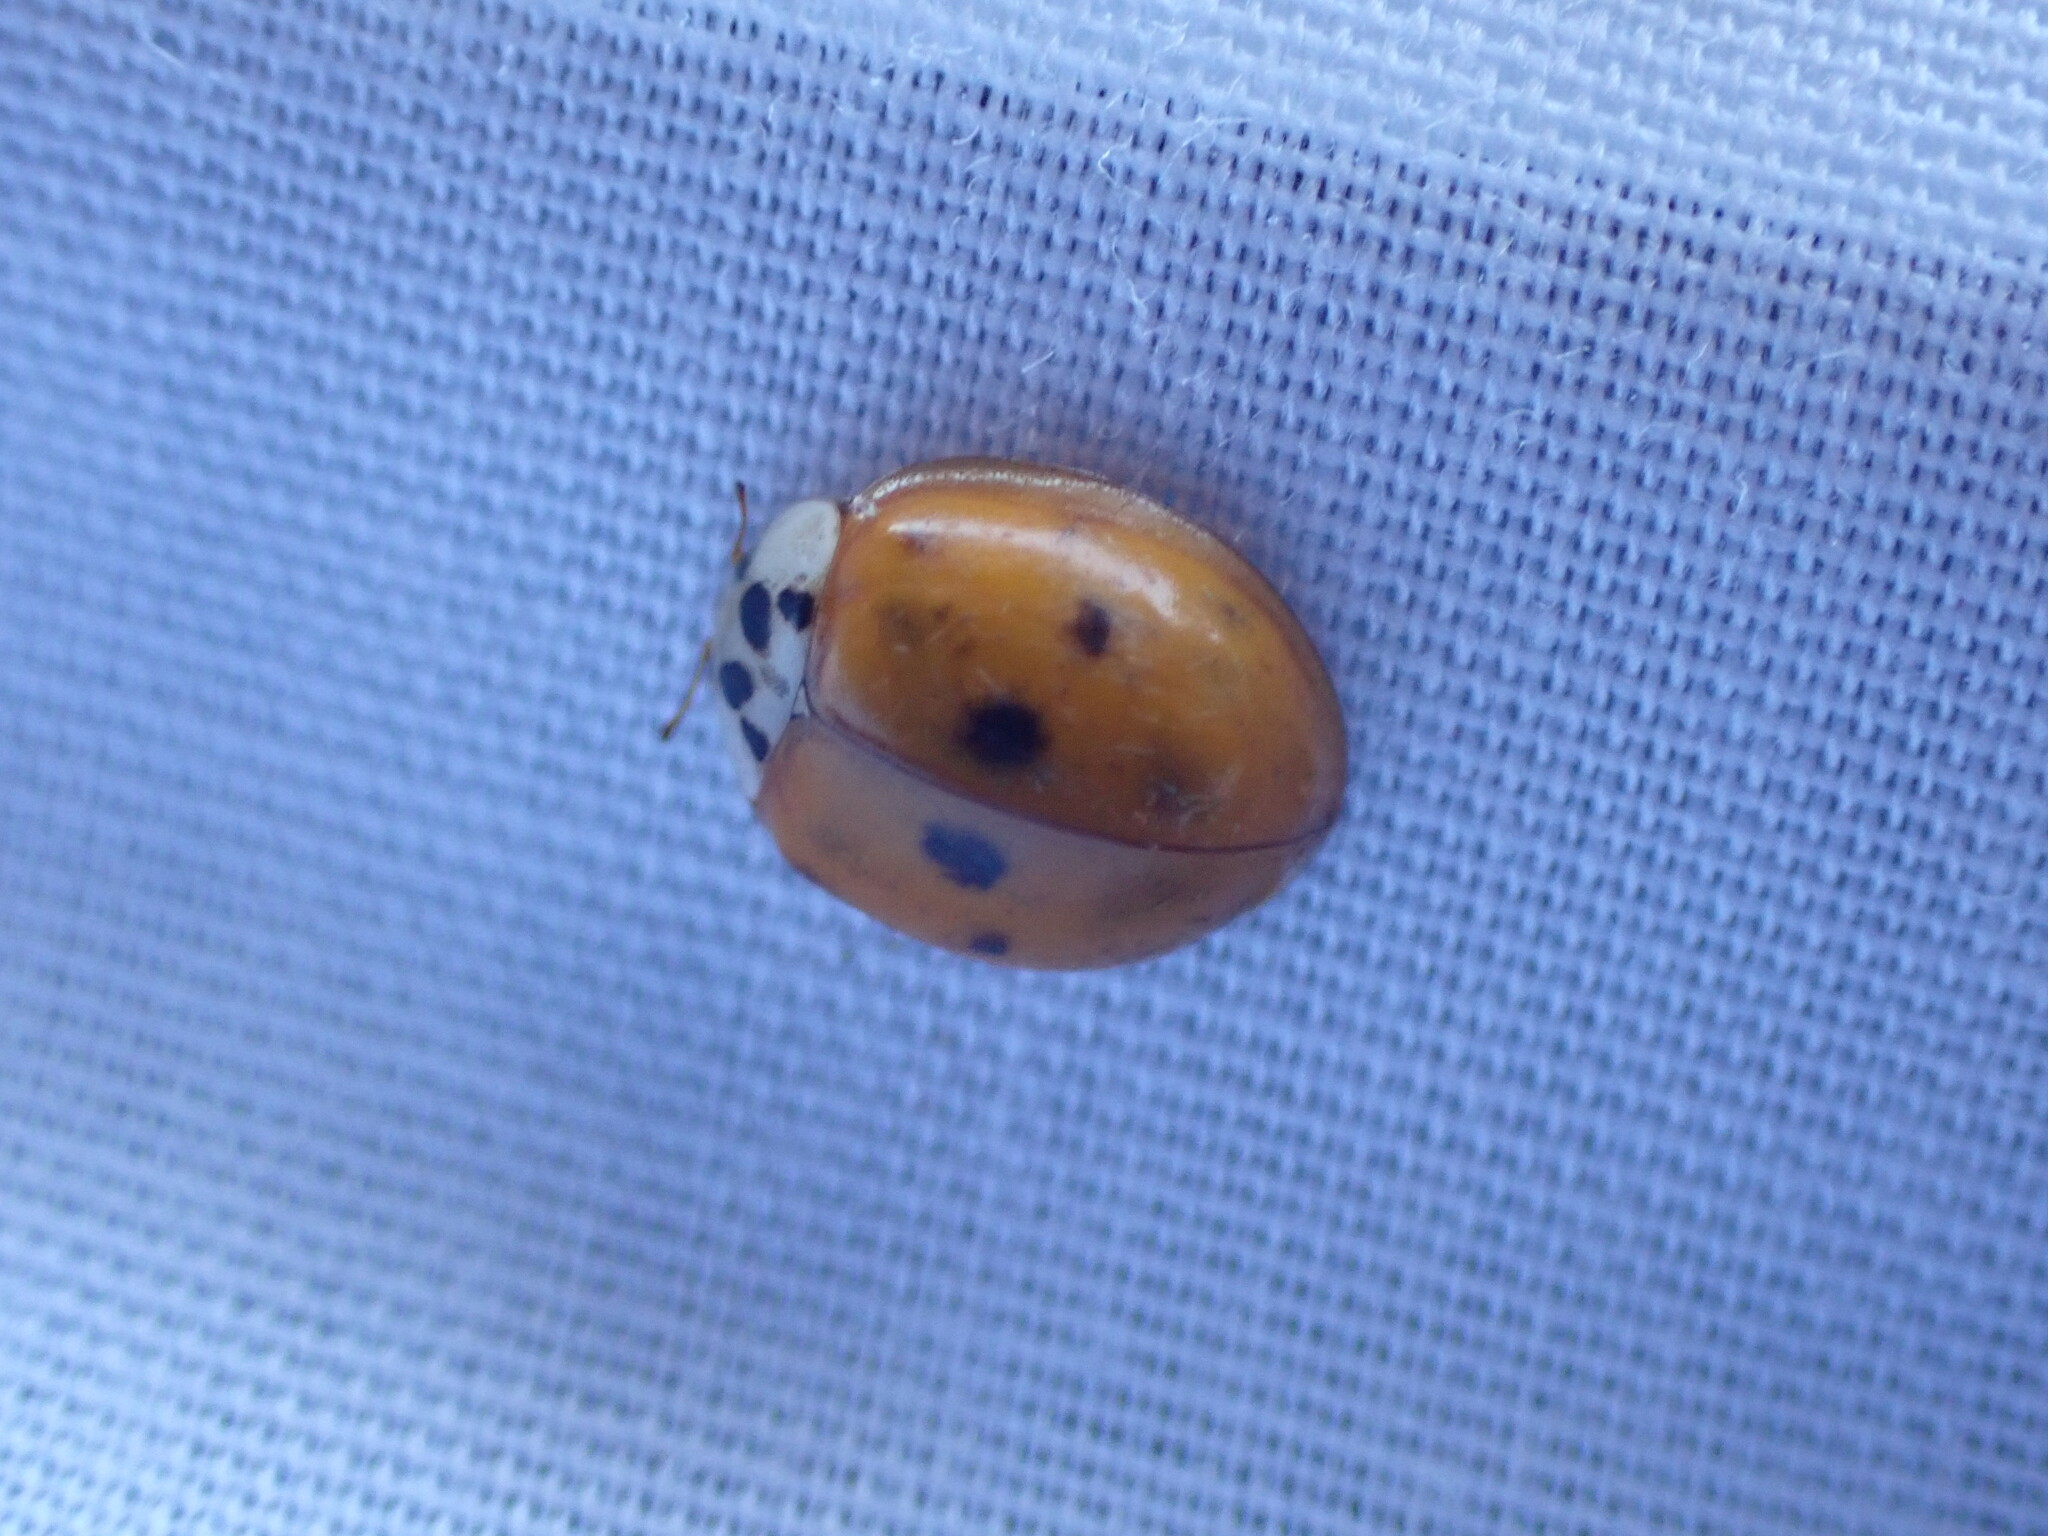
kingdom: Animalia
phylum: Arthropoda
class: Insecta
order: Coleoptera
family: Coccinellidae
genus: Harmonia
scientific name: Harmonia axyridis
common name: Harlequin ladybird
